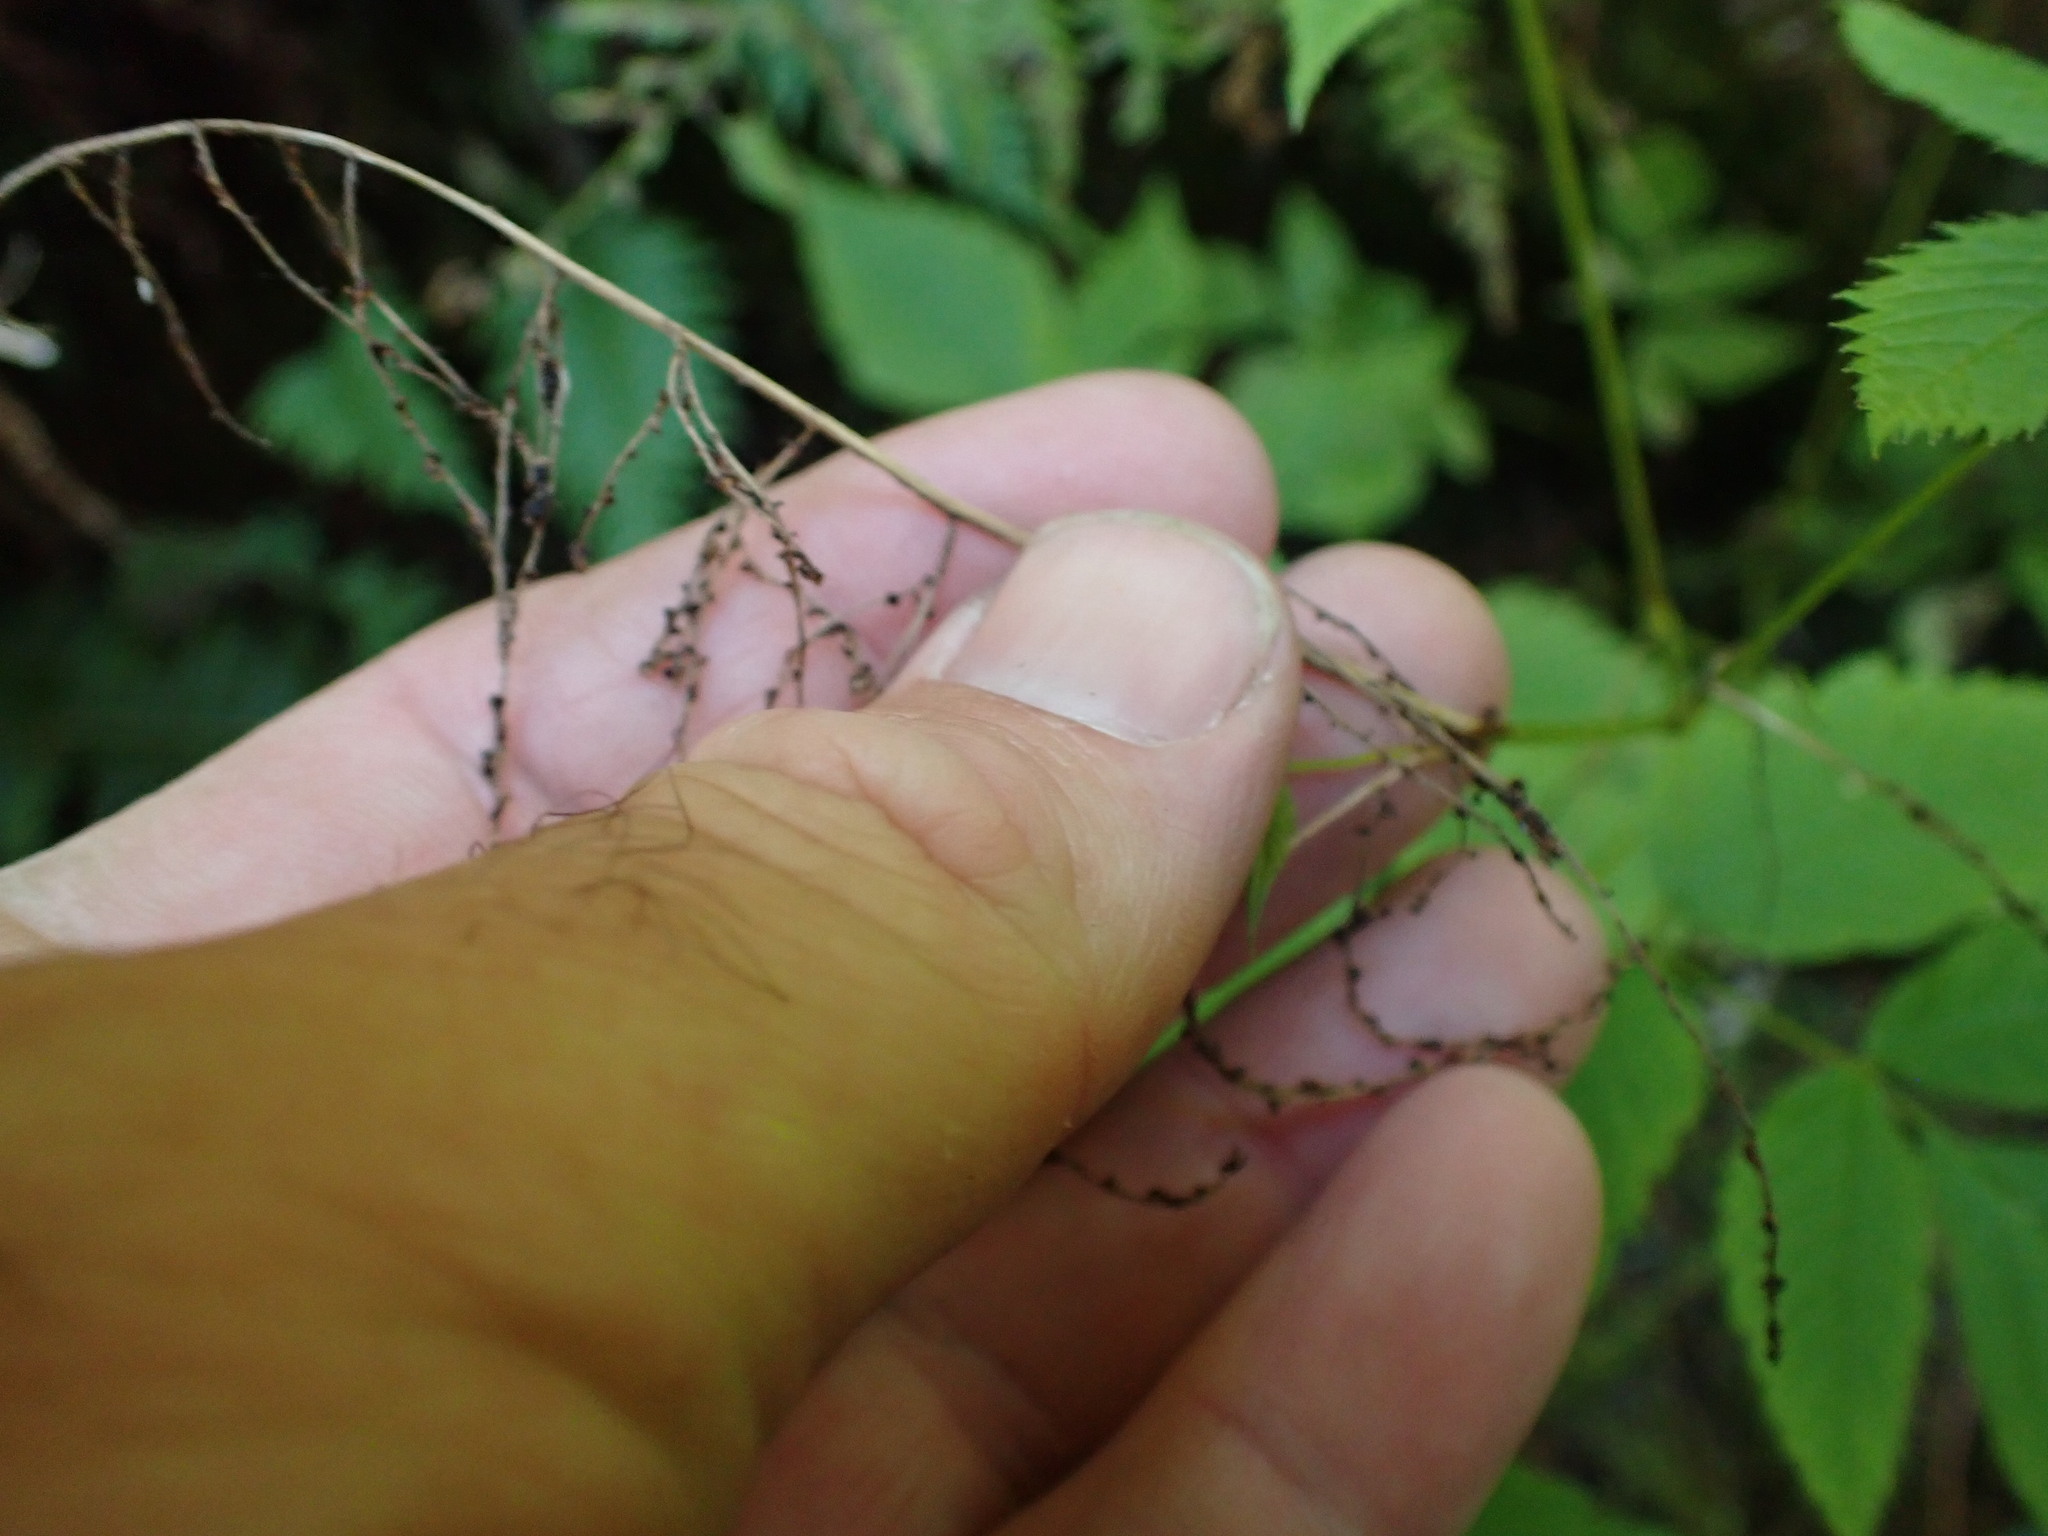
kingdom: Plantae
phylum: Tracheophyta
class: Magnoliopsida
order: Rosales
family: Rosaceae
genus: Aruncus
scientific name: Aruncus dioicus
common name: Buck's-beard
